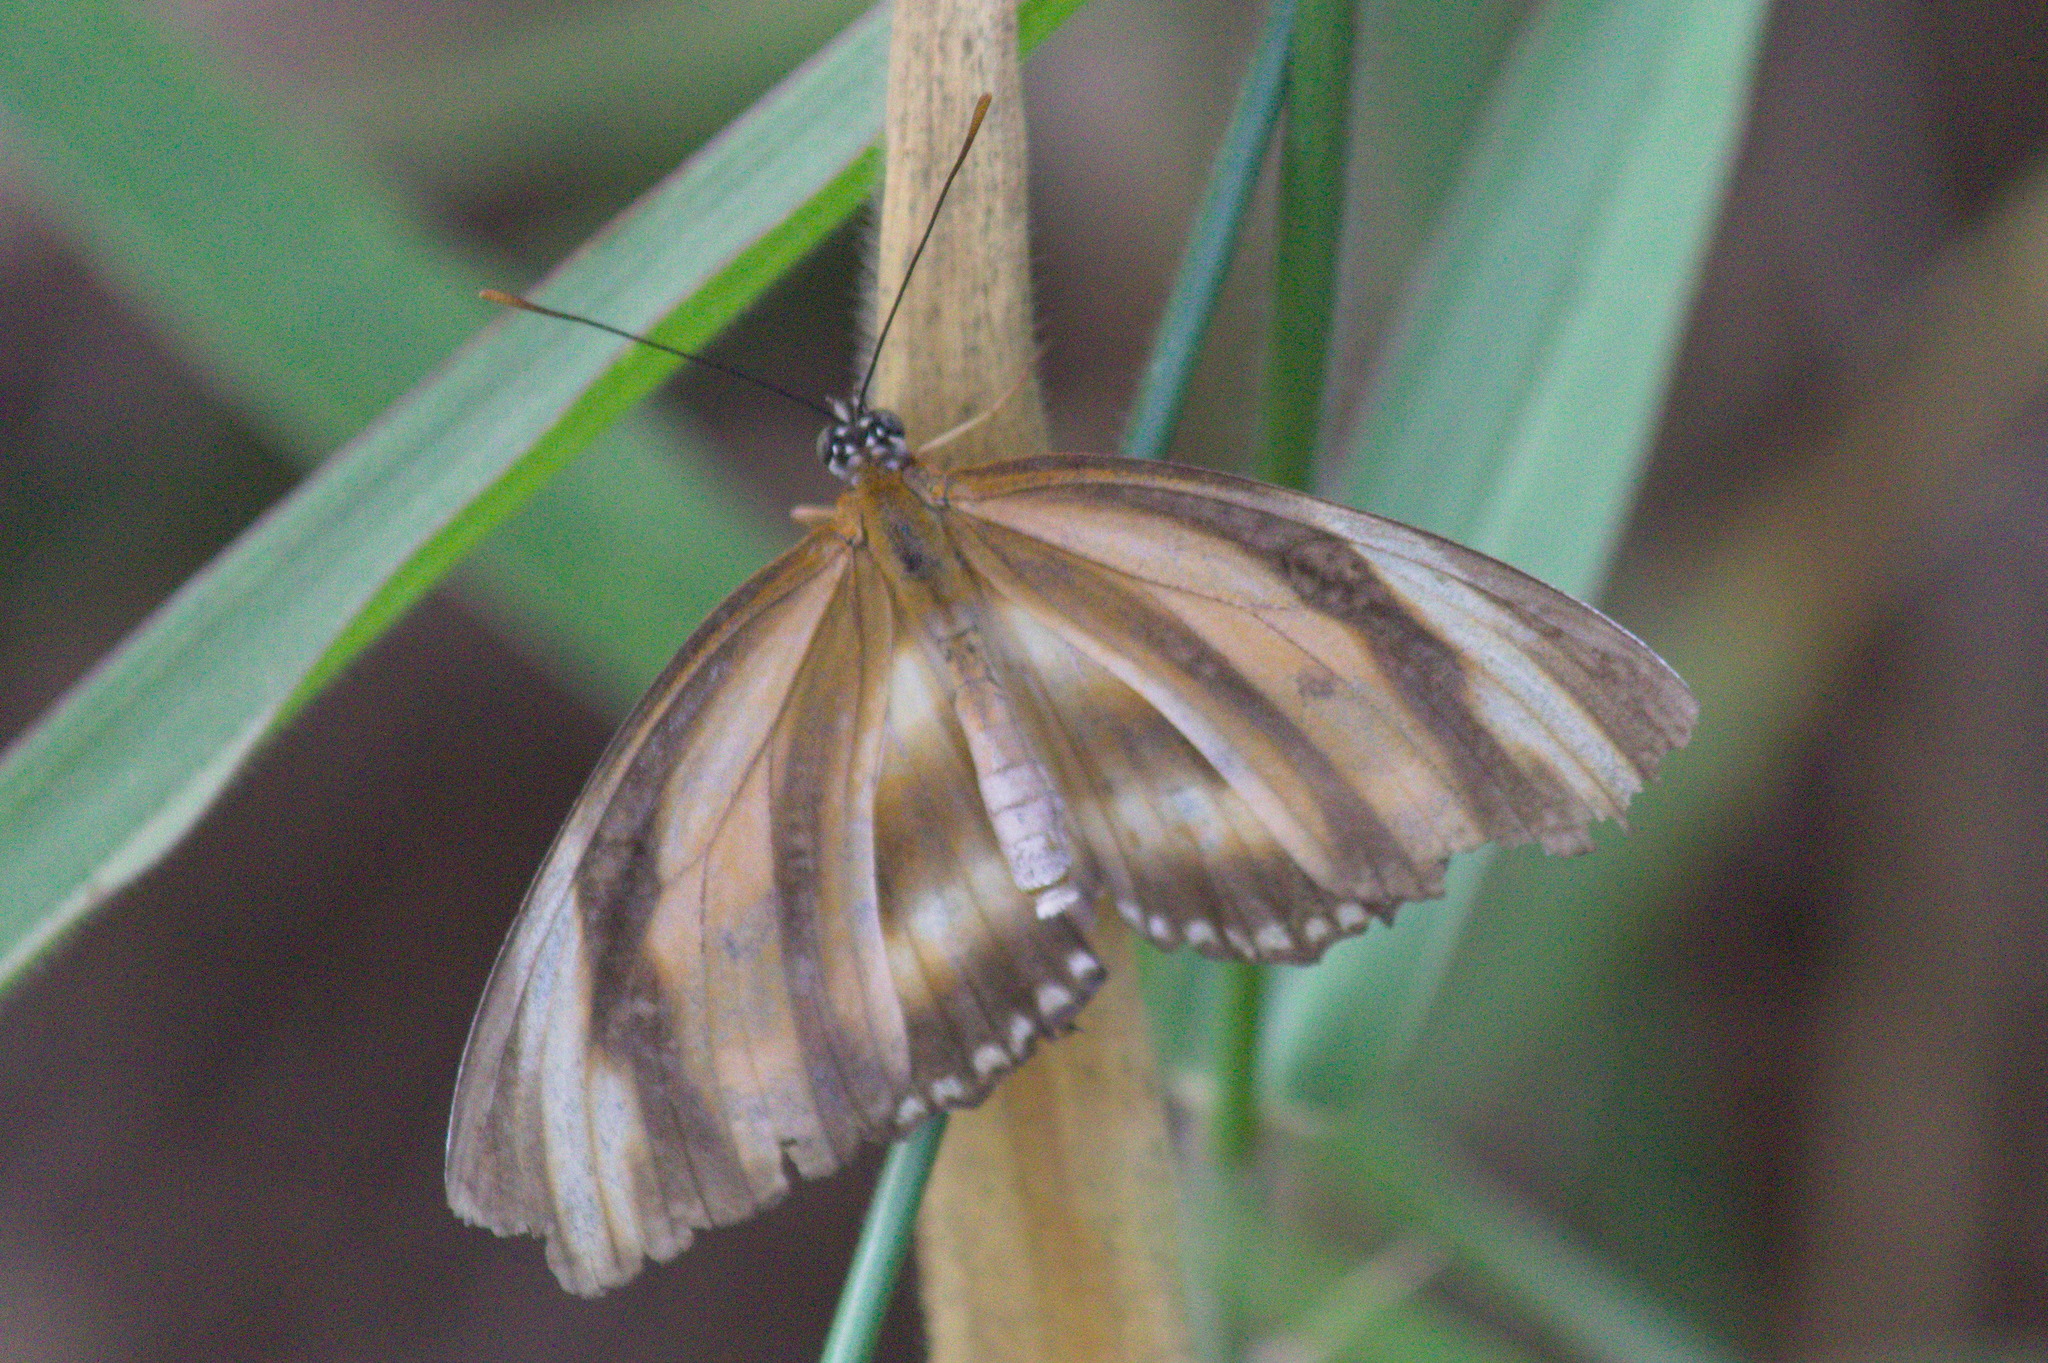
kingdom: Animalia
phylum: Arthropoda
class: Insecta
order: Lepidoptera
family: Nymphalidae
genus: Dryadula
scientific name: Dryadula phaetusa
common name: Banded orange heliconian
